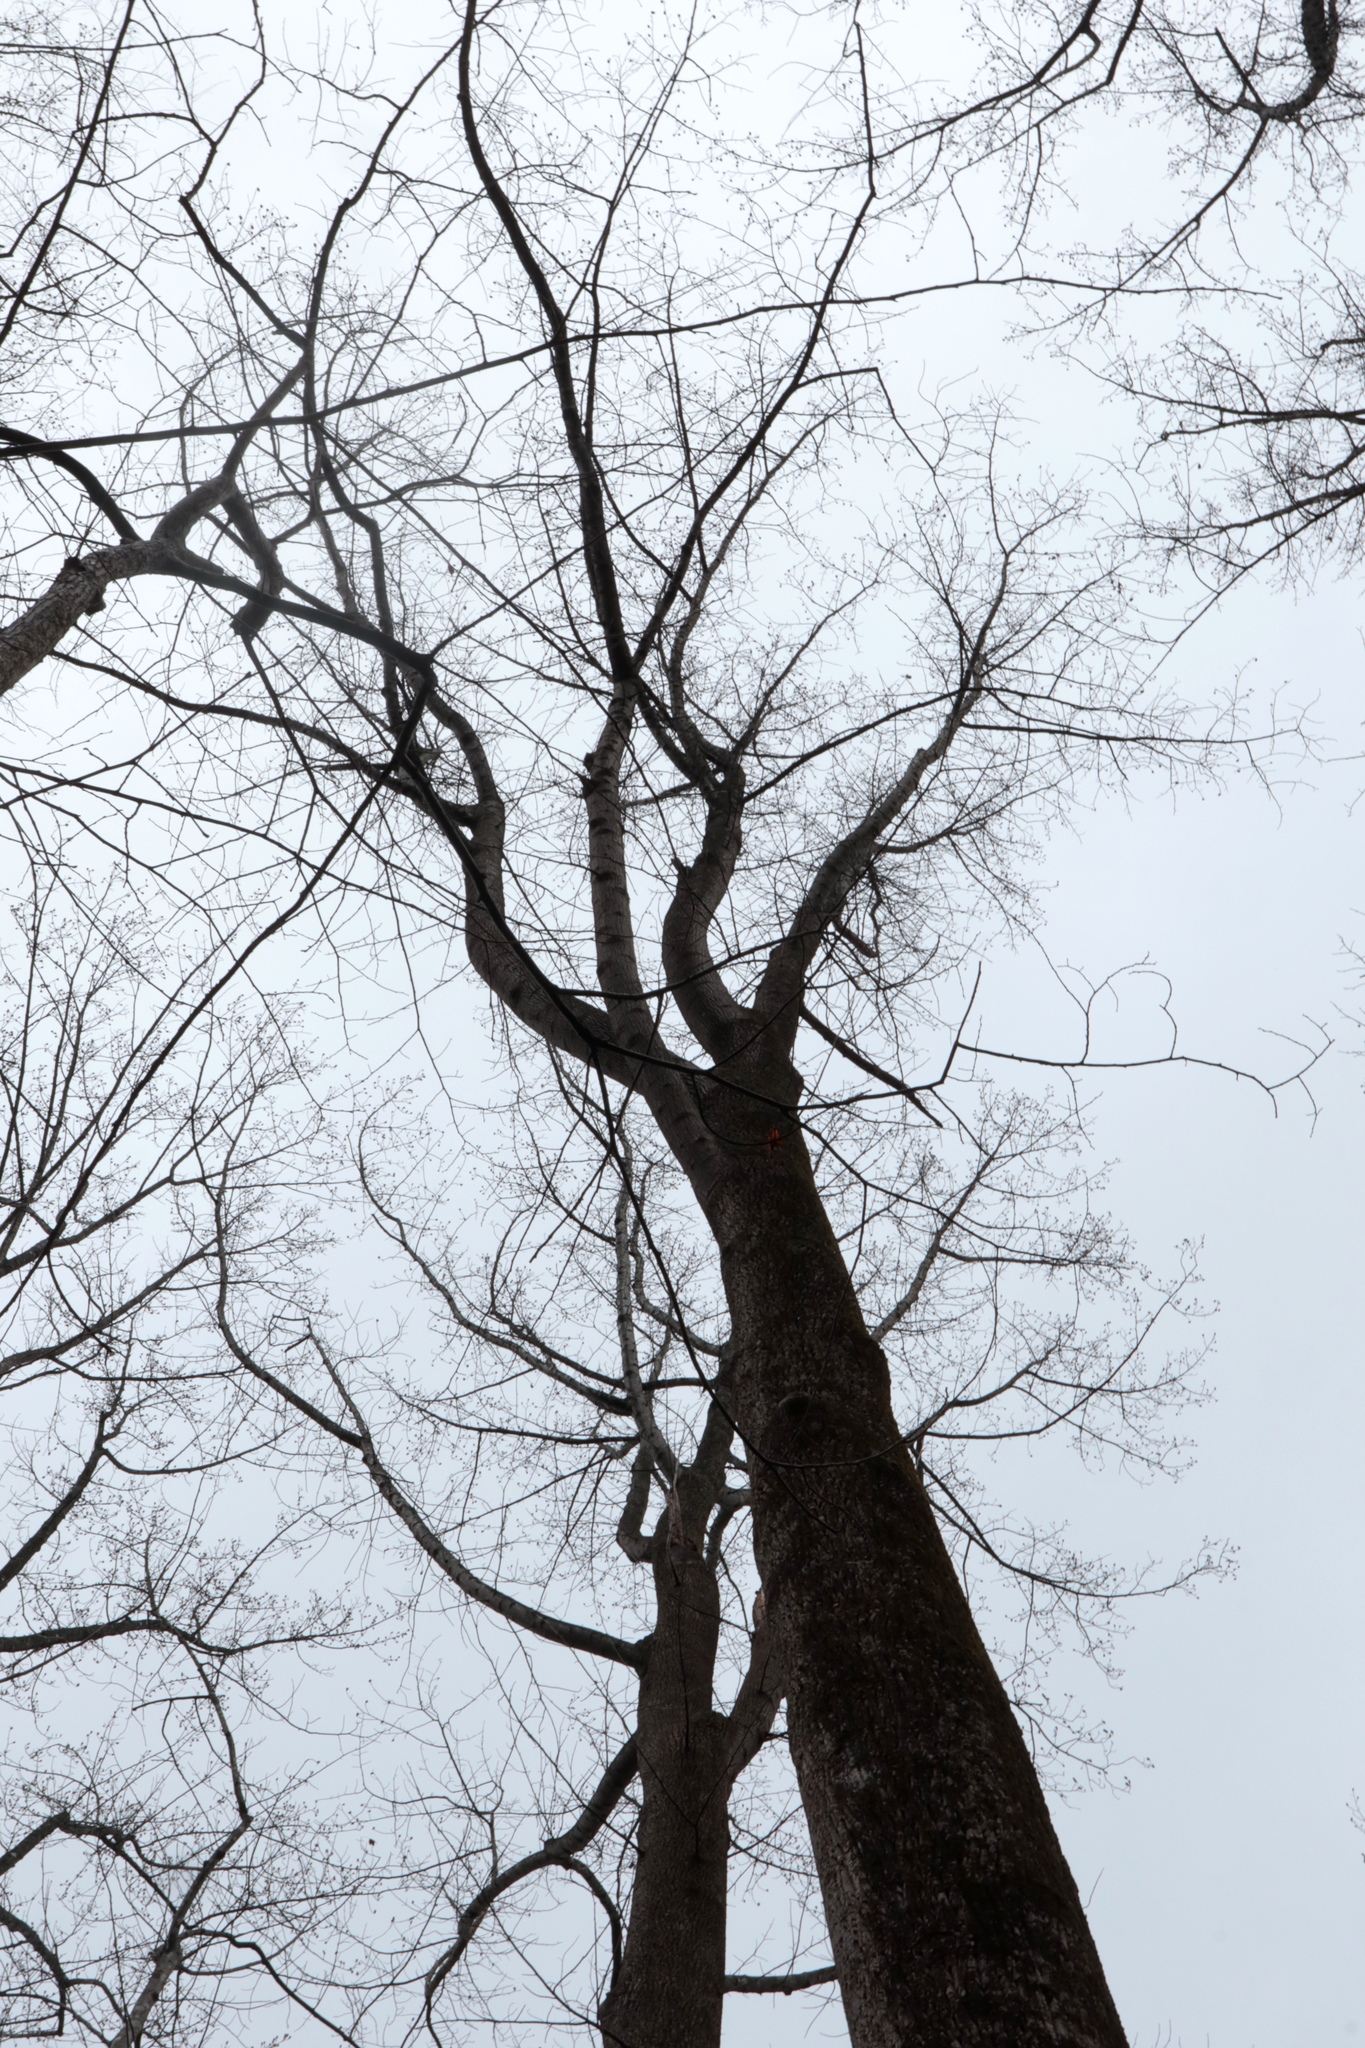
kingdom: Plantae
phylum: Tracheophyta
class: Magnoliopsida
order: Magnoliales
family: Magnoliaceae
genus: Liriodendron
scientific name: Liriodendron tulipifera
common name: Tulip tree
